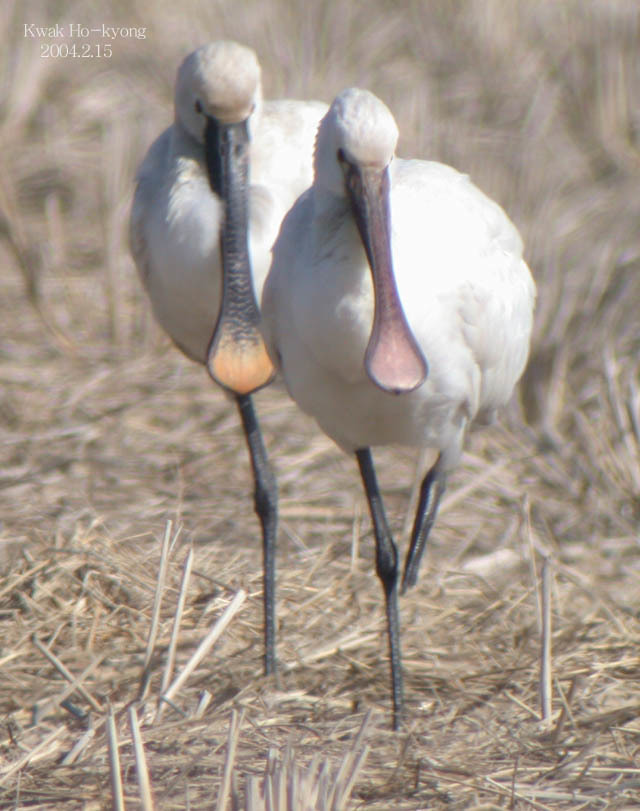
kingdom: Animalia
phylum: Chordata
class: Aves
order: Pelecaniformes
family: Threskiornithidae
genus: Platalea
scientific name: Platalea leucorodia
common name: Eurasian spoonbill
